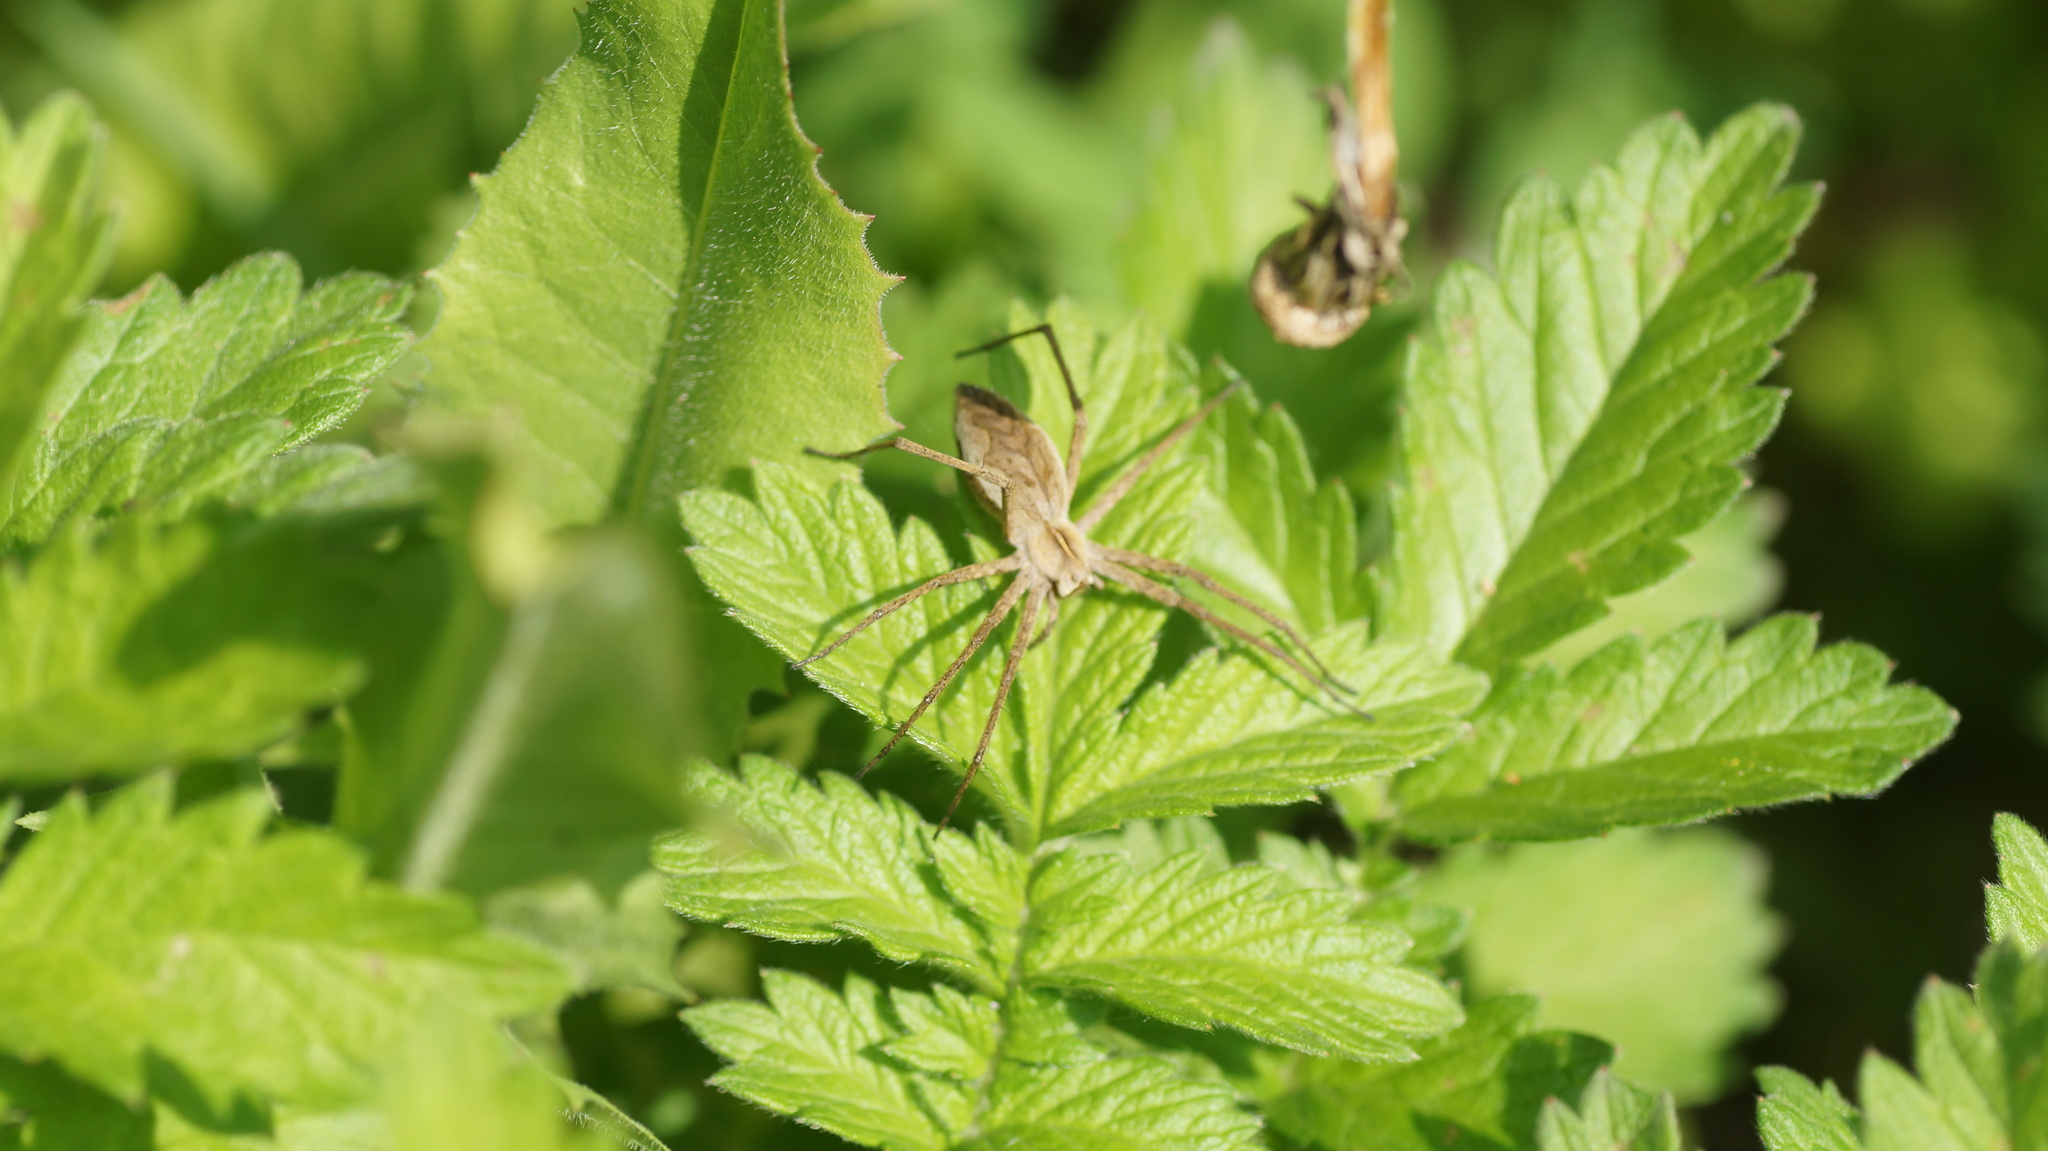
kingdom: Animalia
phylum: Arthropoda
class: Arachnida
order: Araneae
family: Pisauridae
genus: Pisaura
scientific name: Pisaura mirabilis
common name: Tent spider
